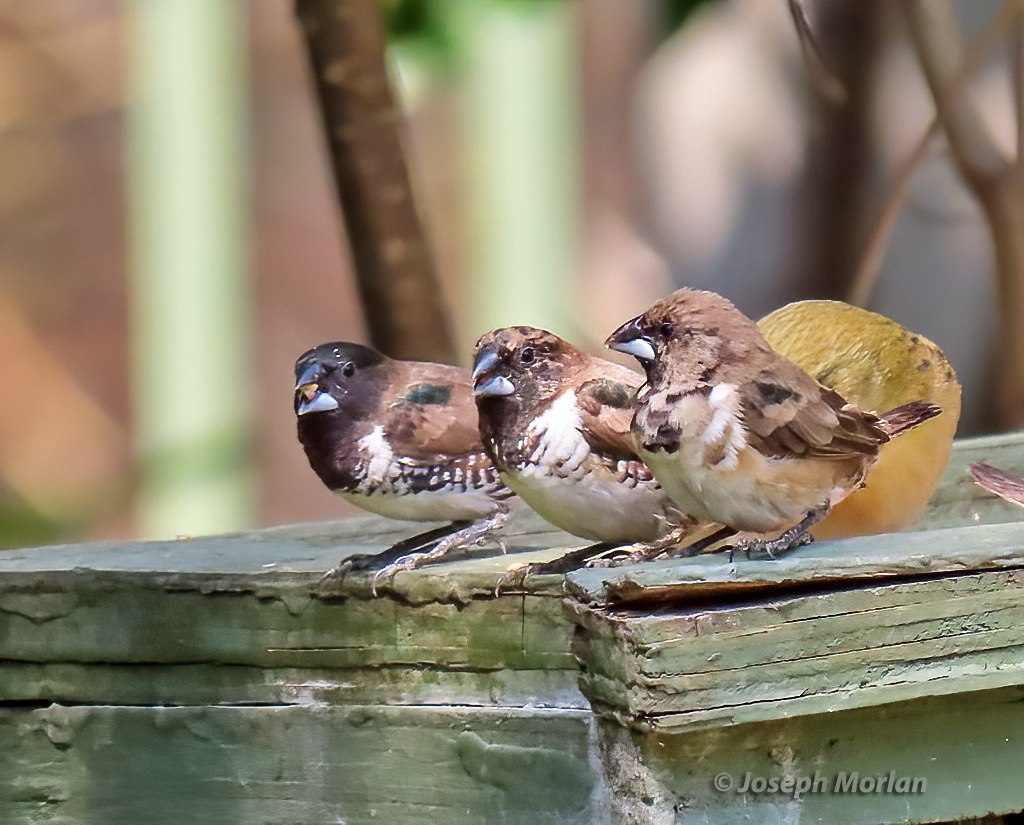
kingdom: Animalia
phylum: Chordata
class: Aves
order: Passeriformes
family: Estrildidae
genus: Lonchura
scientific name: Lonchura cucullata
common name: Bronze mannikin
